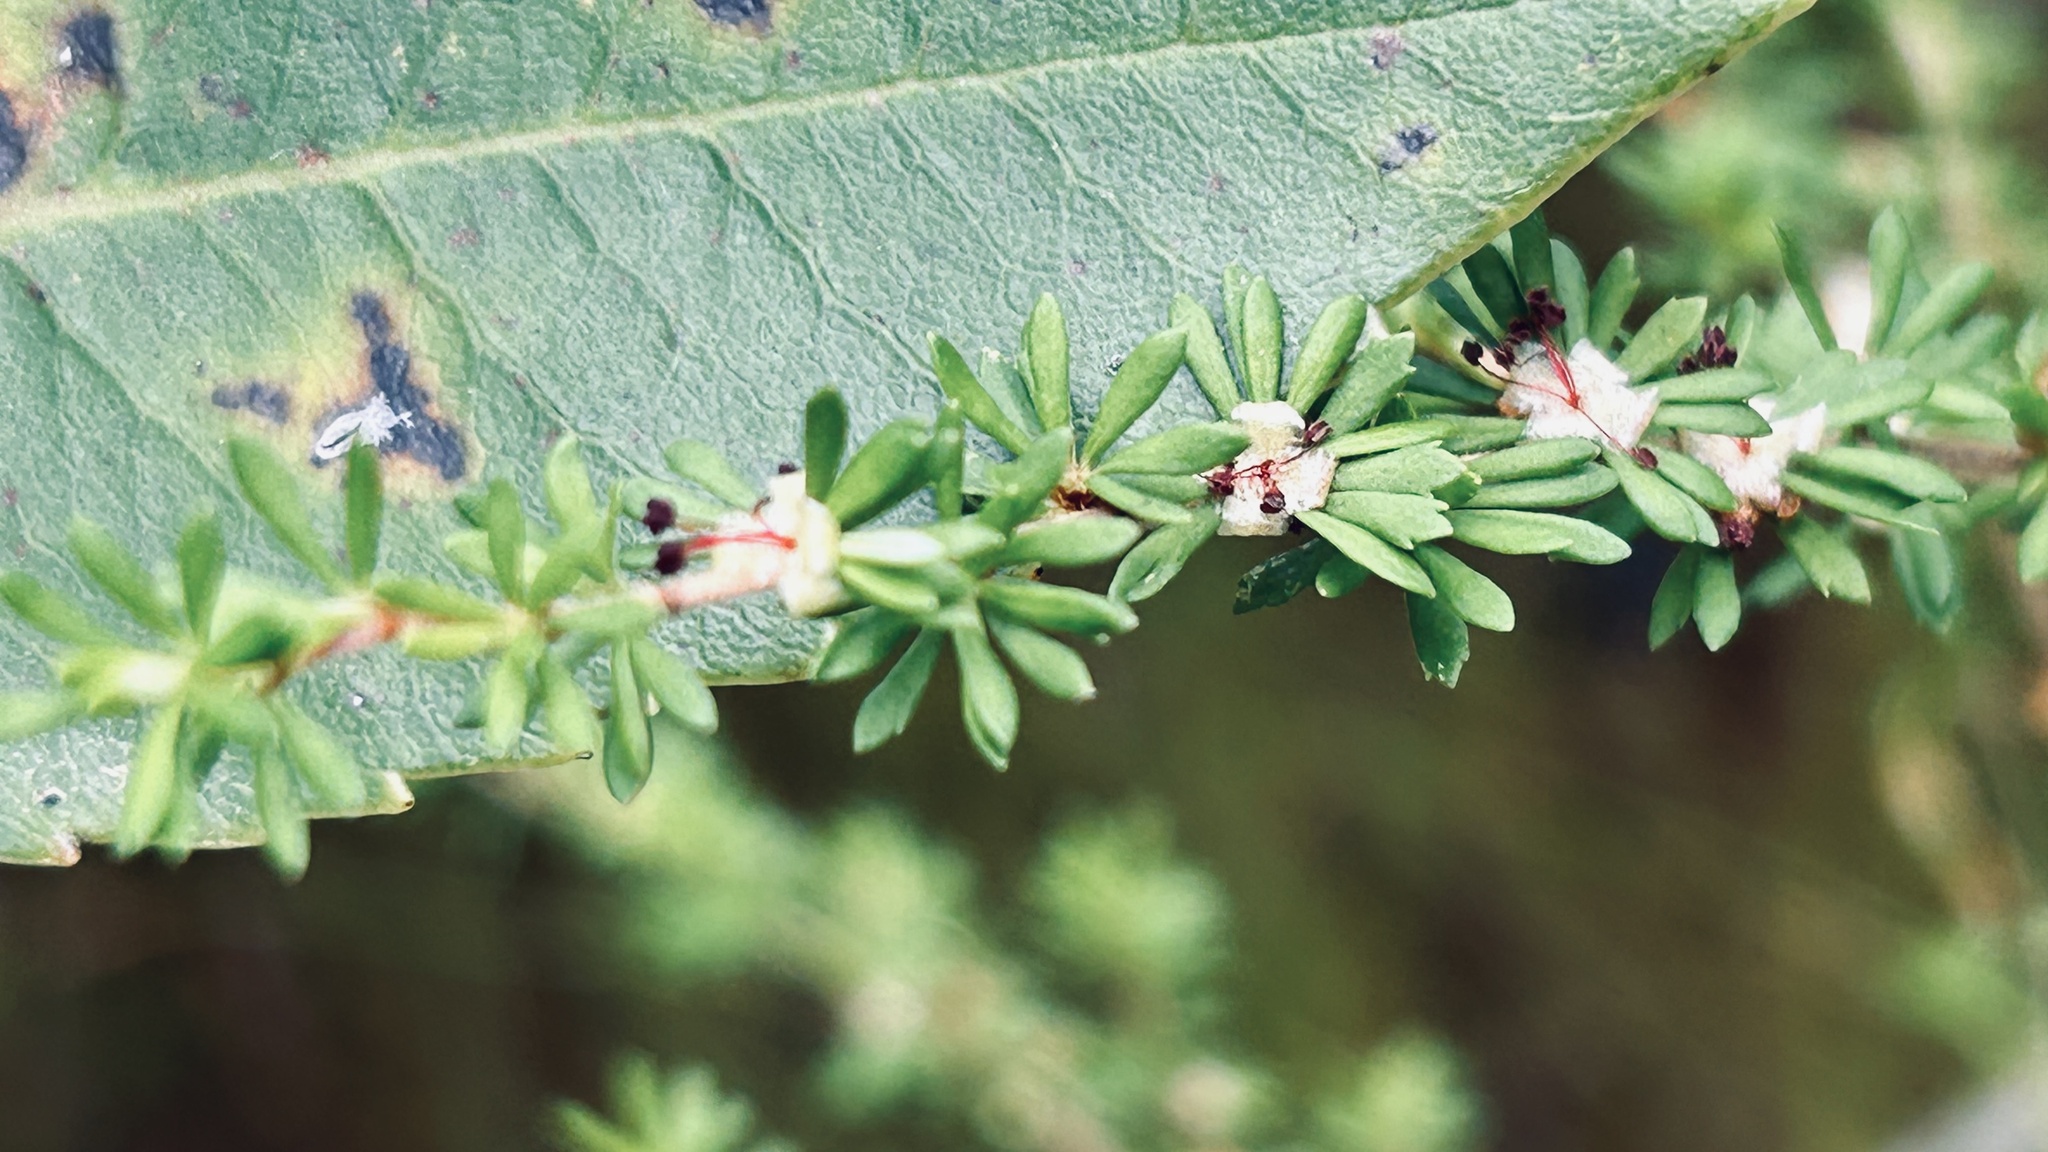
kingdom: Plantae
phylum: Tracheophyta
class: Magnoliopsida
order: Rosales
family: Rosaceae
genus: Cliffortia
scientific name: Cliffortia serpyllifolia
